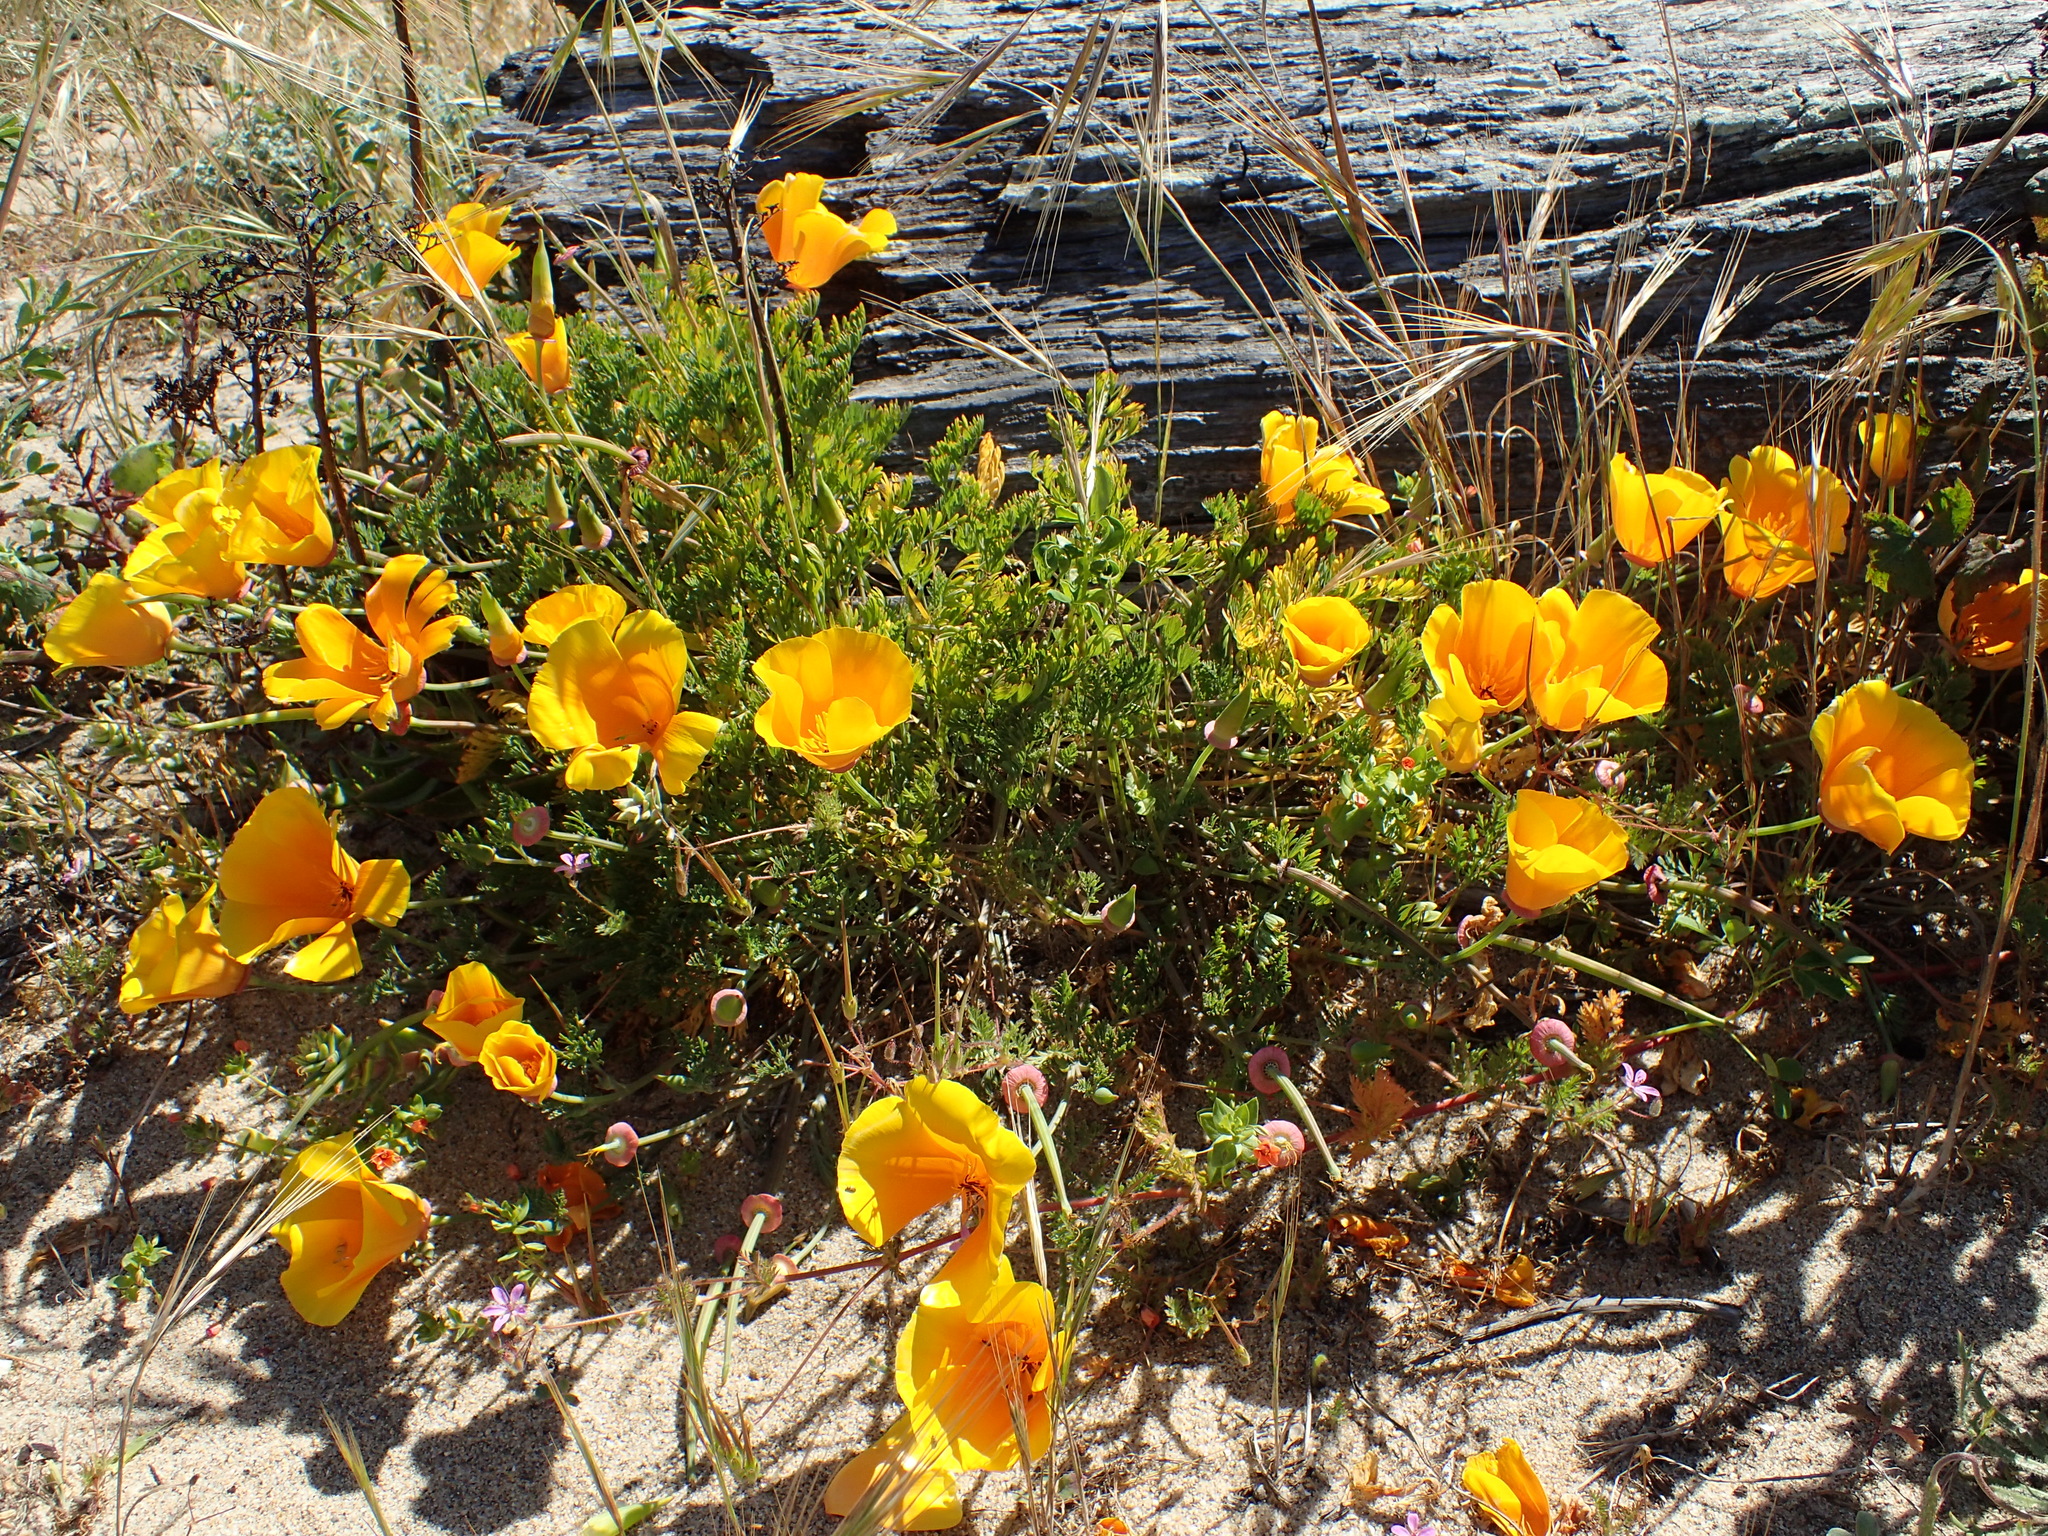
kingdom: Plantae
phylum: Tracheophyta
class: Magnoliopsida
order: Ranunculales
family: Papaveraceae
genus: Eschscholzia
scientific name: Eschscholzia californica
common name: California poppy
